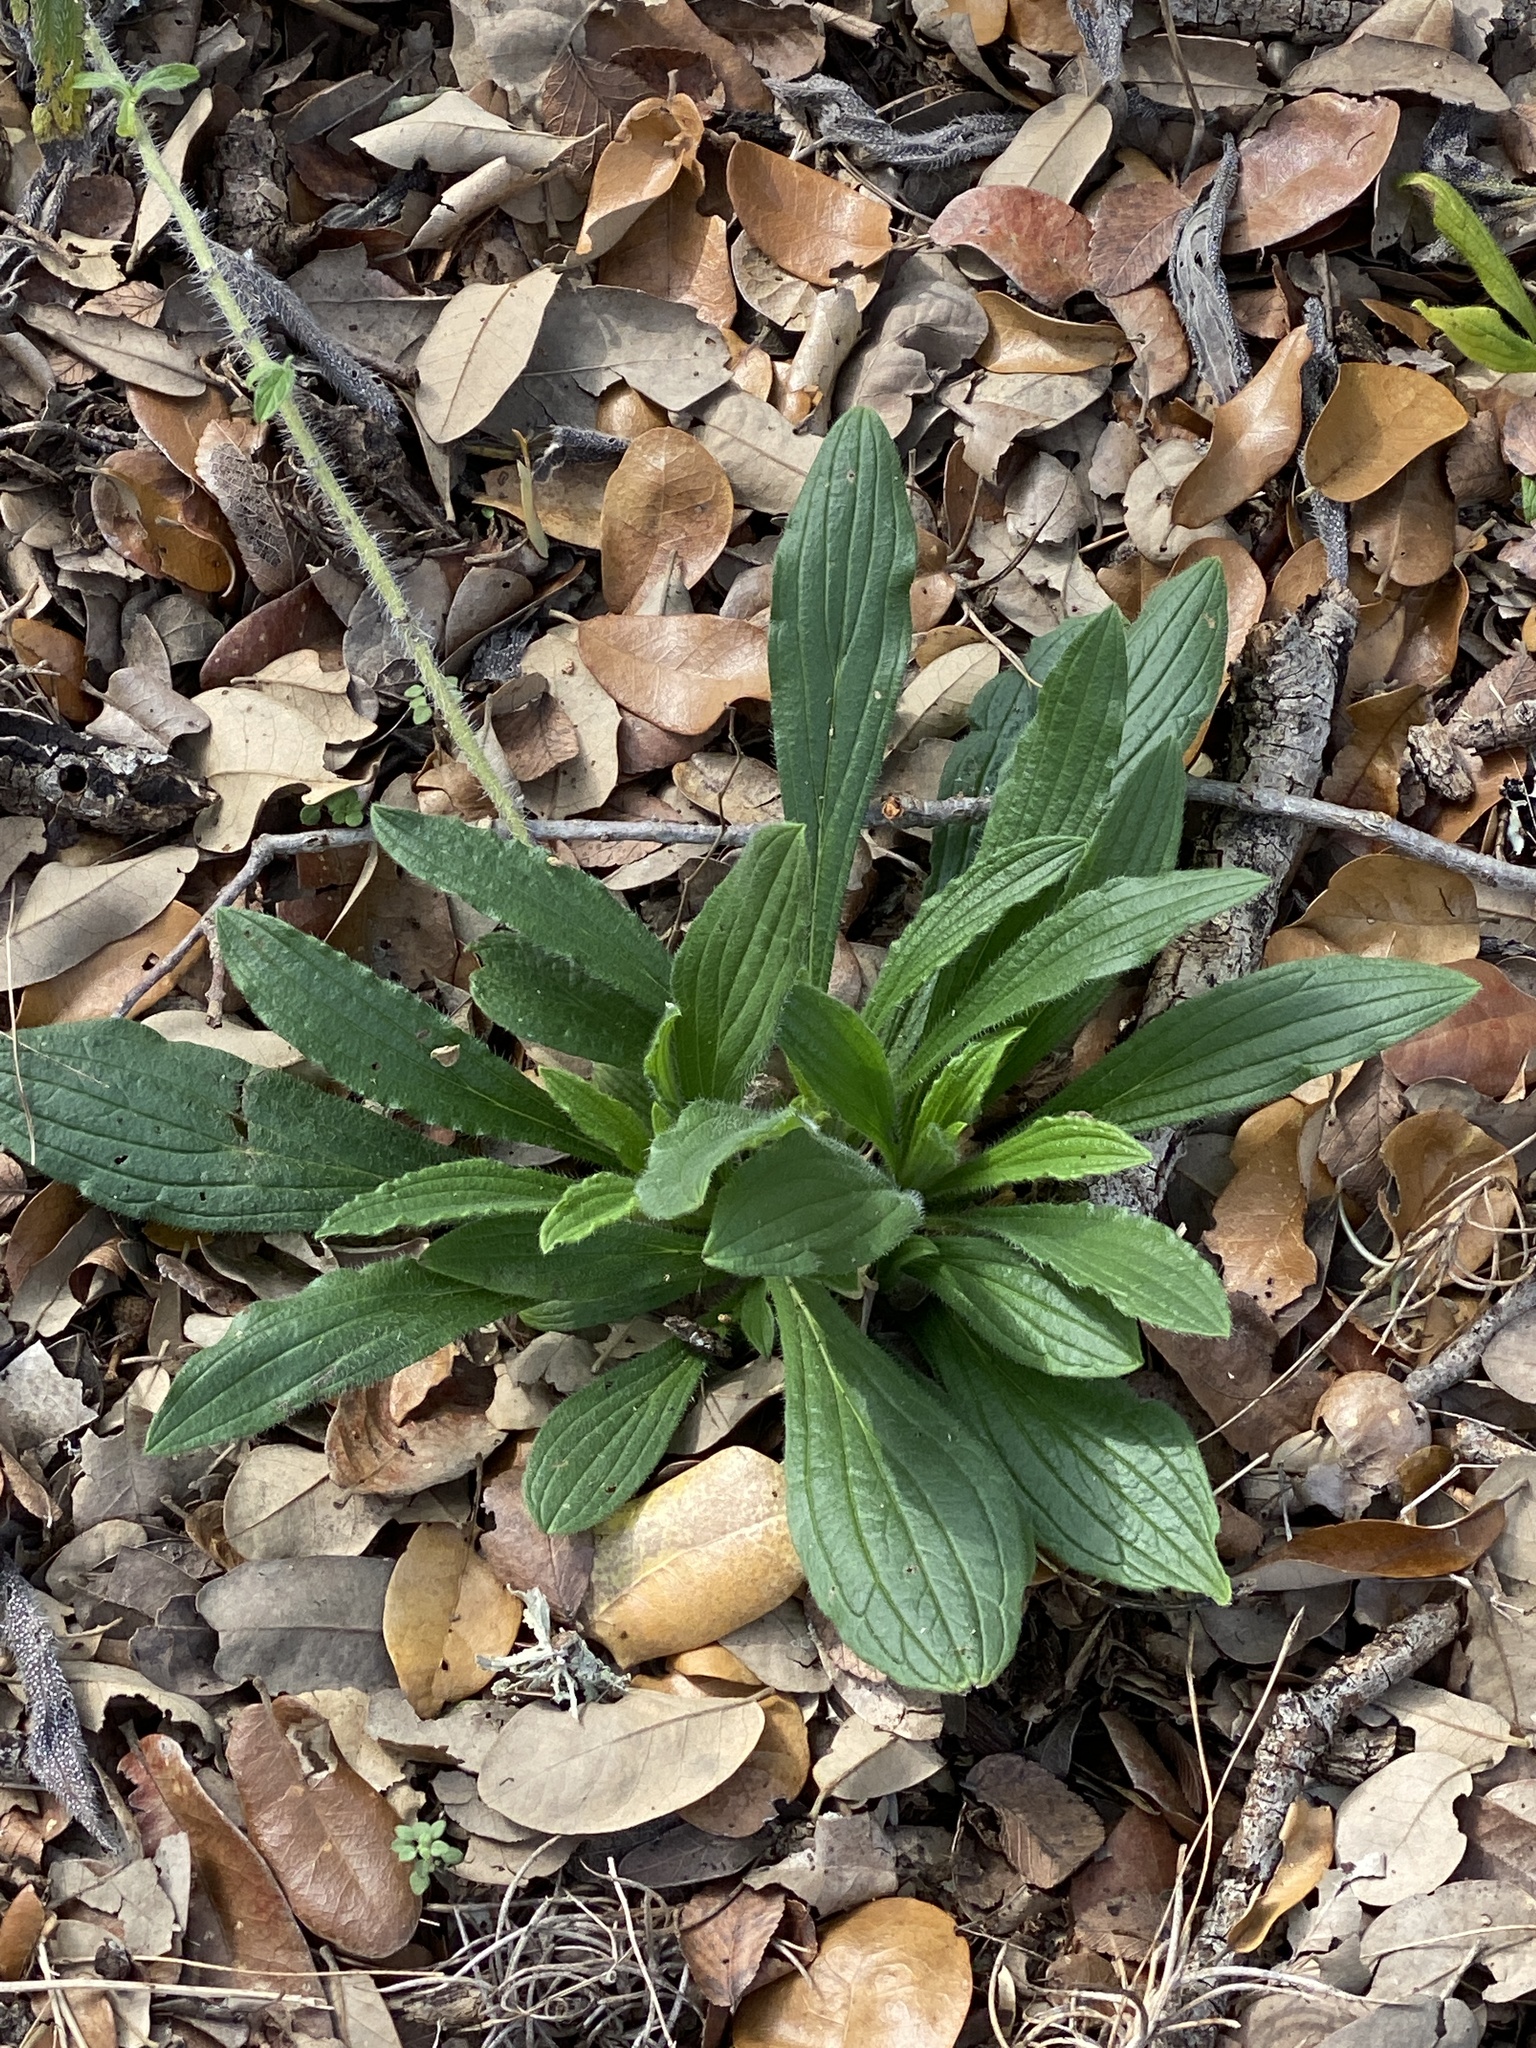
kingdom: Plantae
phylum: Tracheophyta
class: Magnoliopsida
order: Boraginales
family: Boraginaceae
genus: Lithospermum
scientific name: Lithospermum caroliniense
